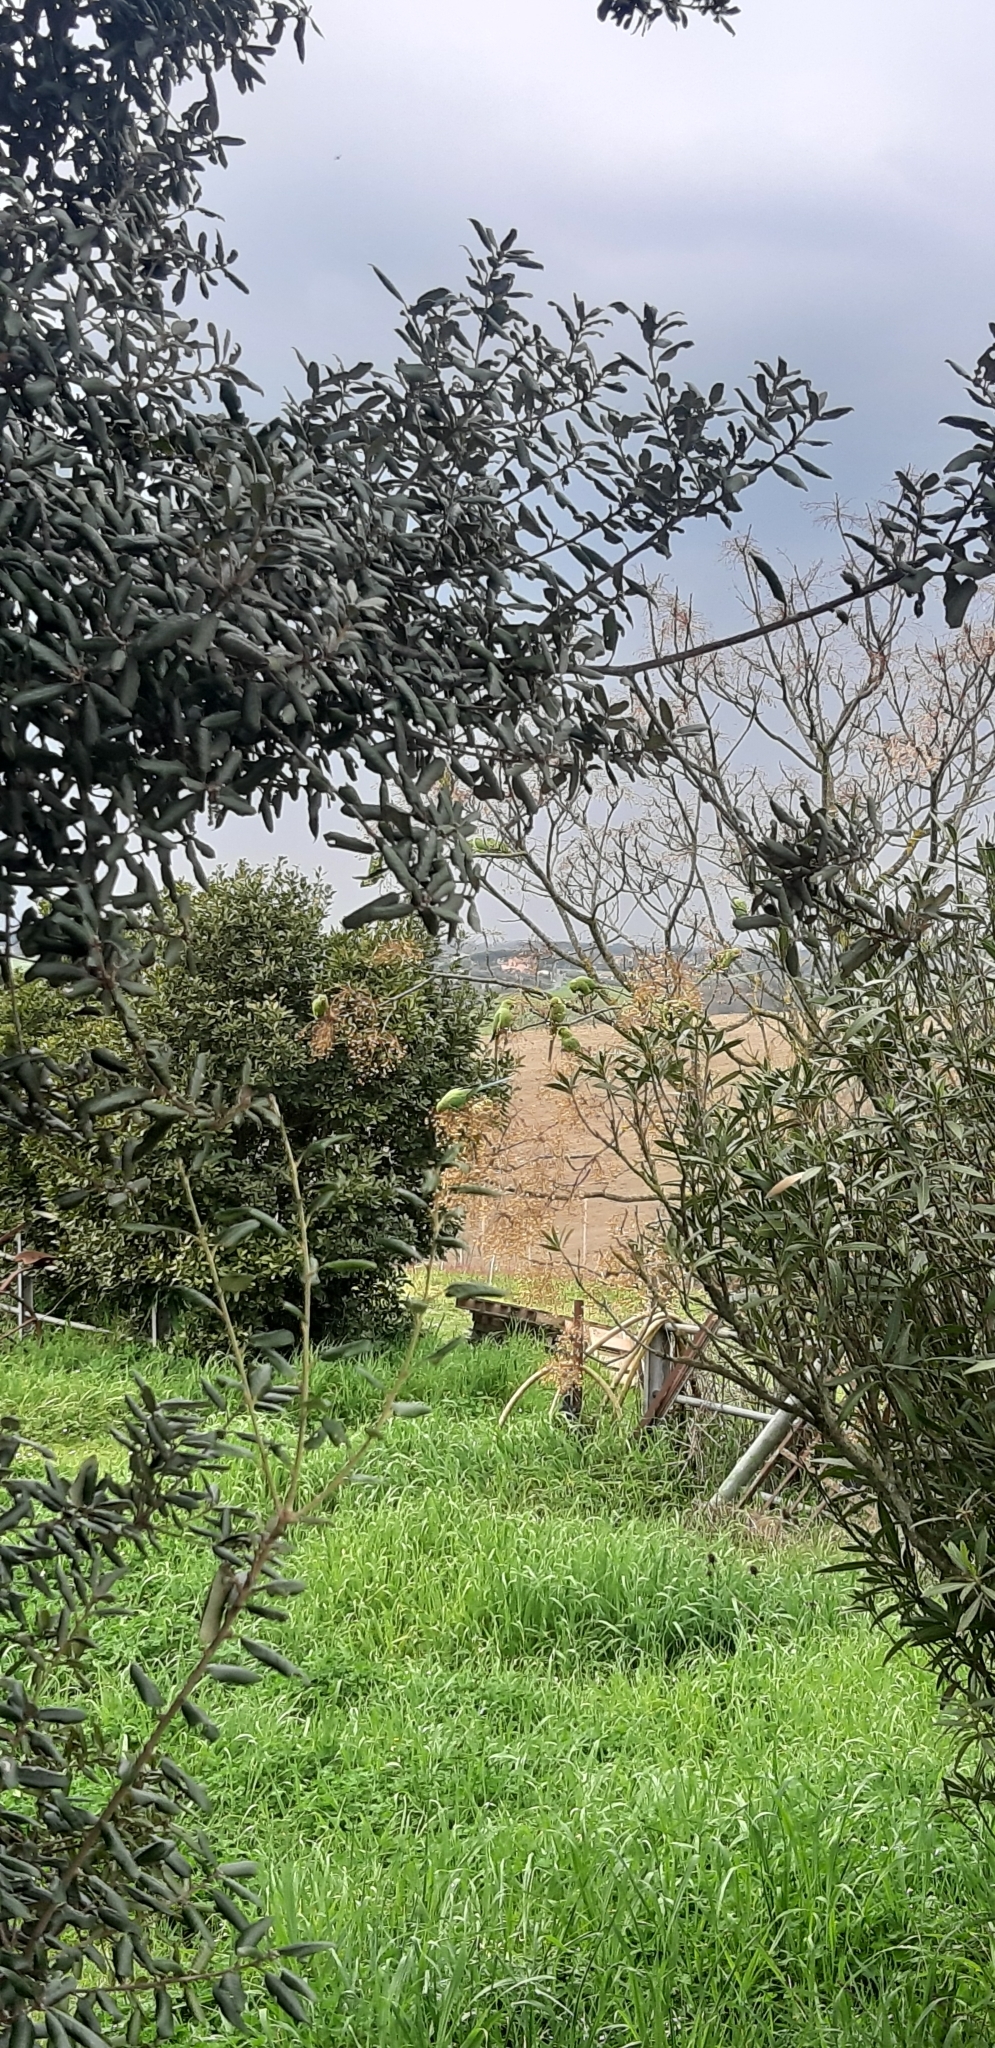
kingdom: Animalia
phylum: Chordata
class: Aves
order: Psittaciformes
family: Psittacidae
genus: Psittacula
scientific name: Psittacula krameri
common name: Rose-ringed parakeet
